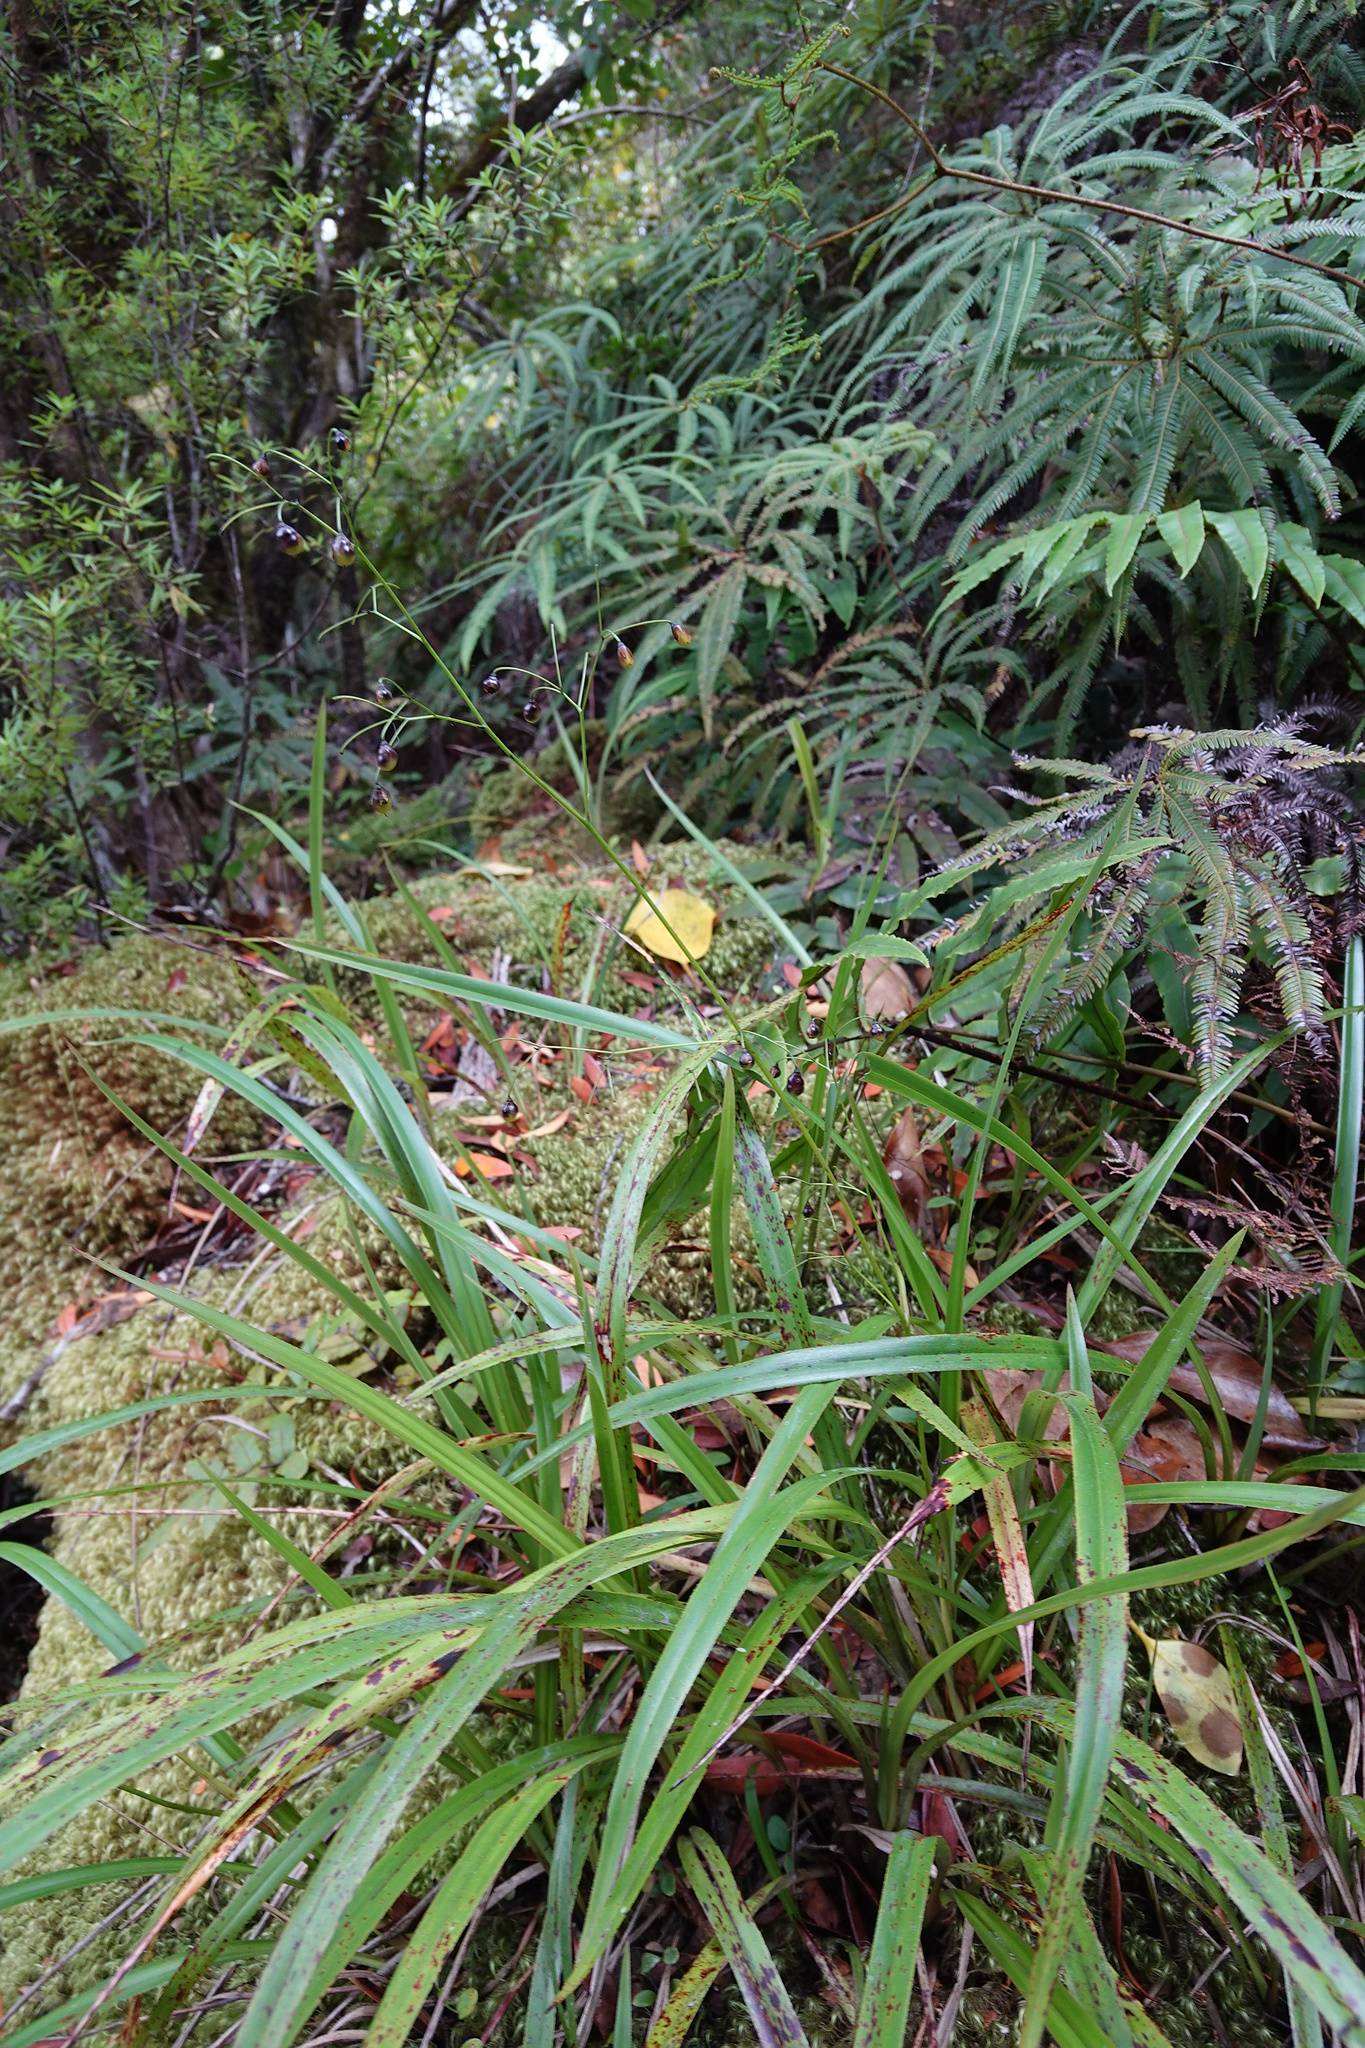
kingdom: Plantae
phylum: Tracheophyta
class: Liliopsida
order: Asparagales
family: Asphodelaceae
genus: Dianella
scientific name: Dianella nigra
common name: New zealand-blueberry
